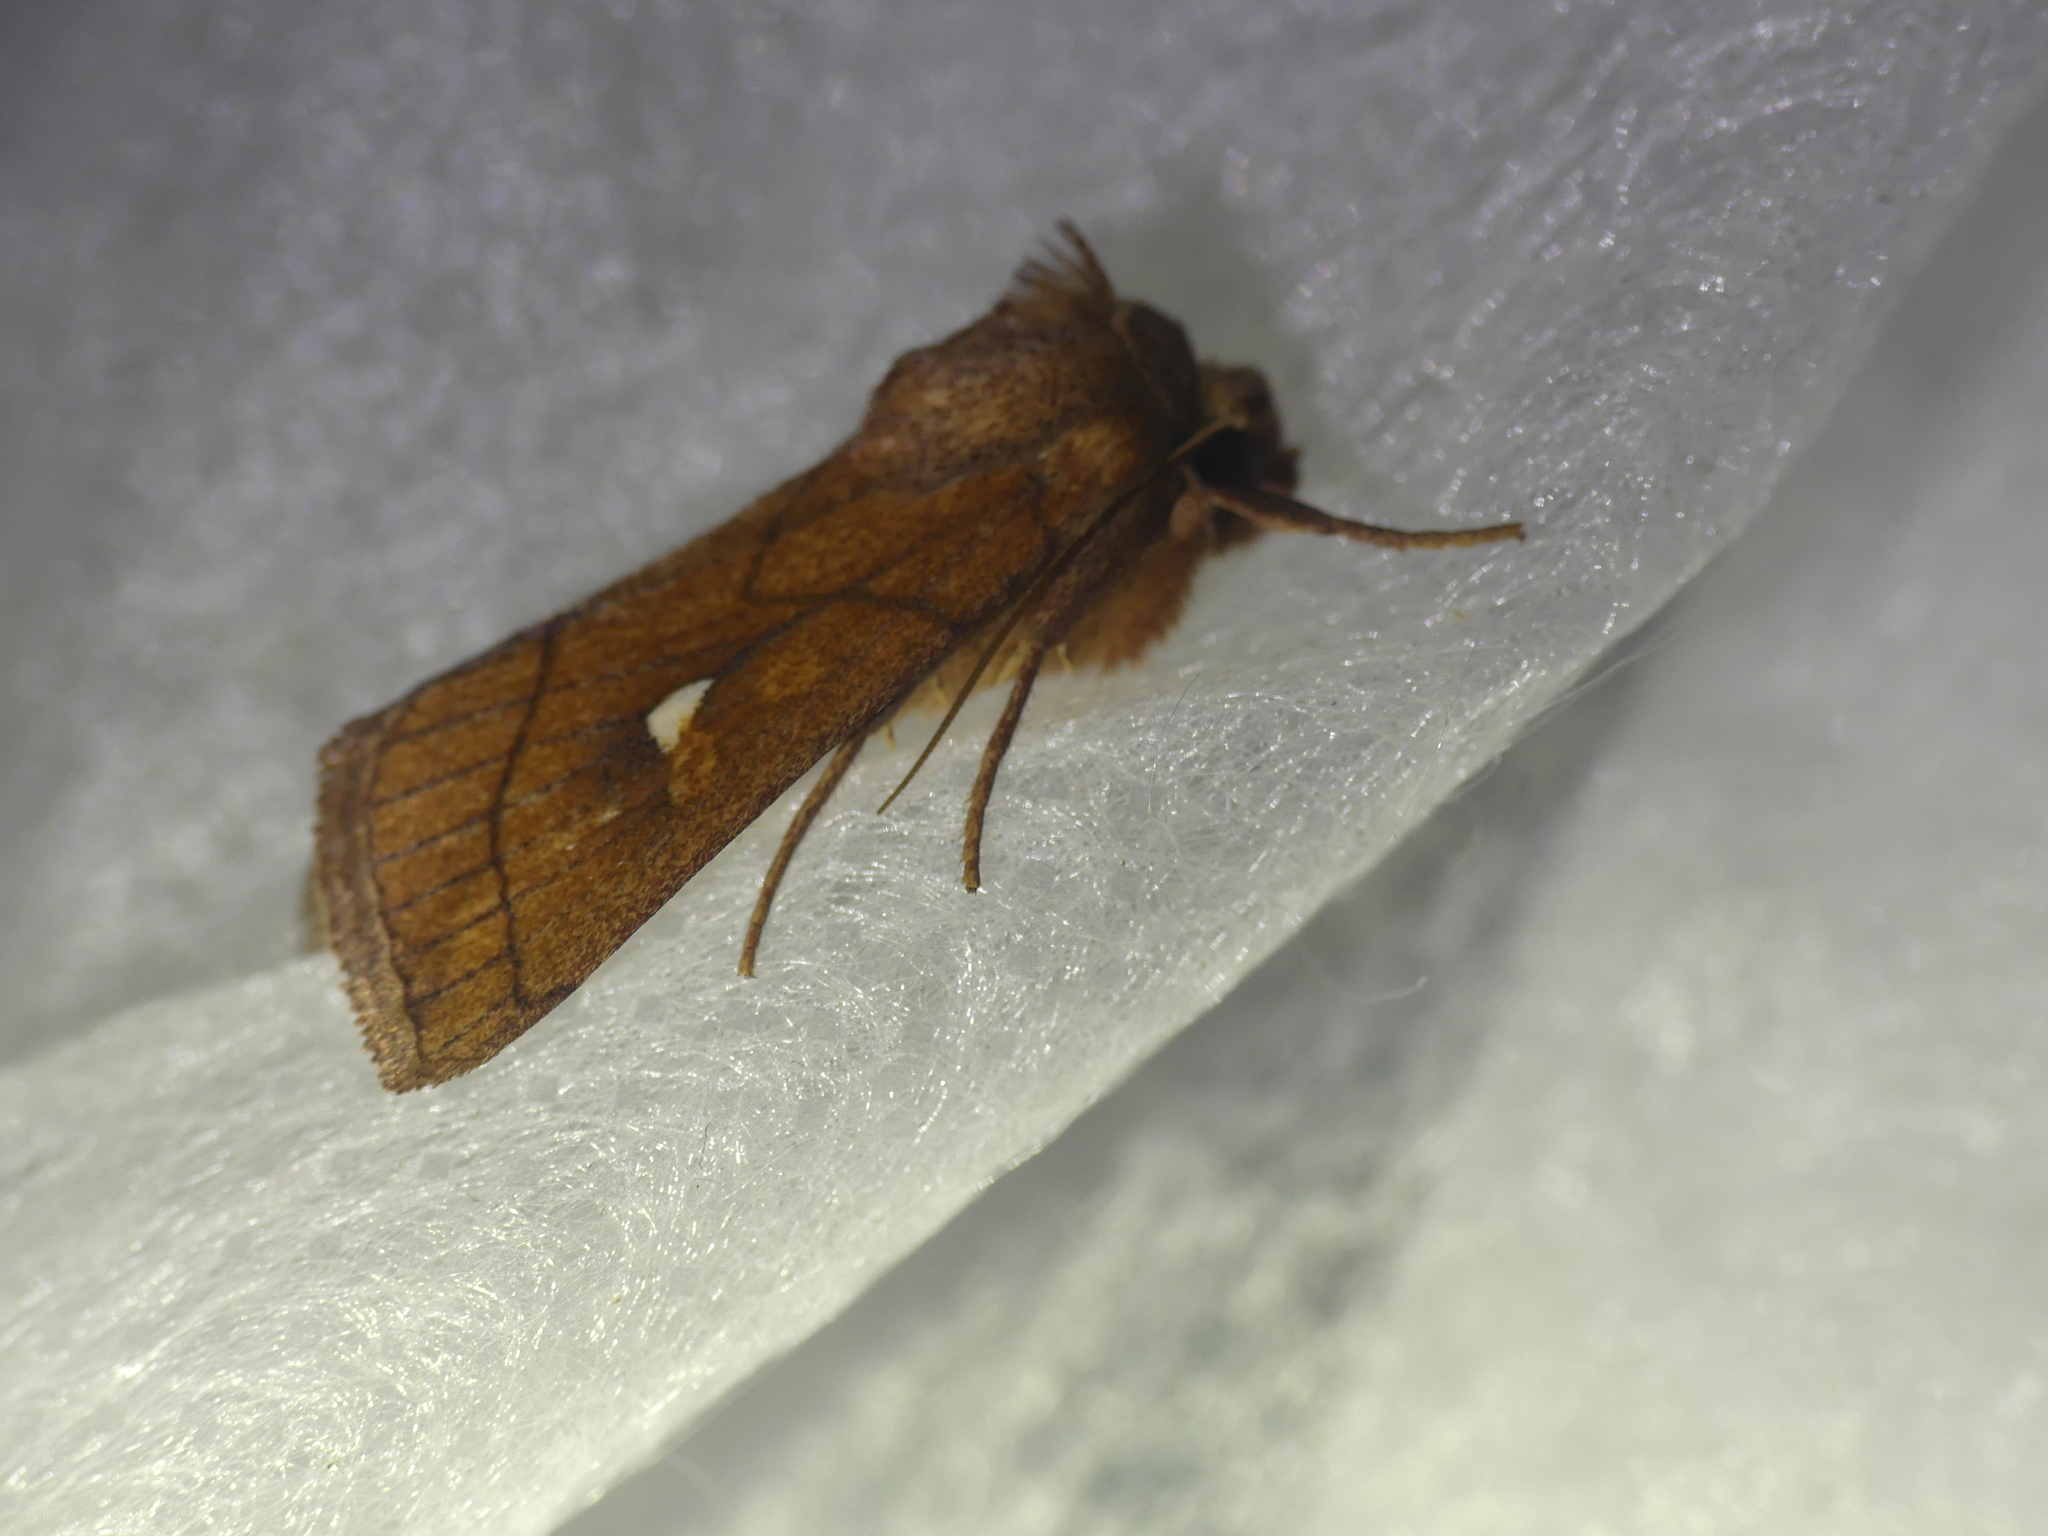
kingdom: Animalia
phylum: Arthropoda
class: Insecta
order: Lepidoptera
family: Noctuidae
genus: Mythimna
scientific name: Mythimna conigera
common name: Brown-line bright-eye
